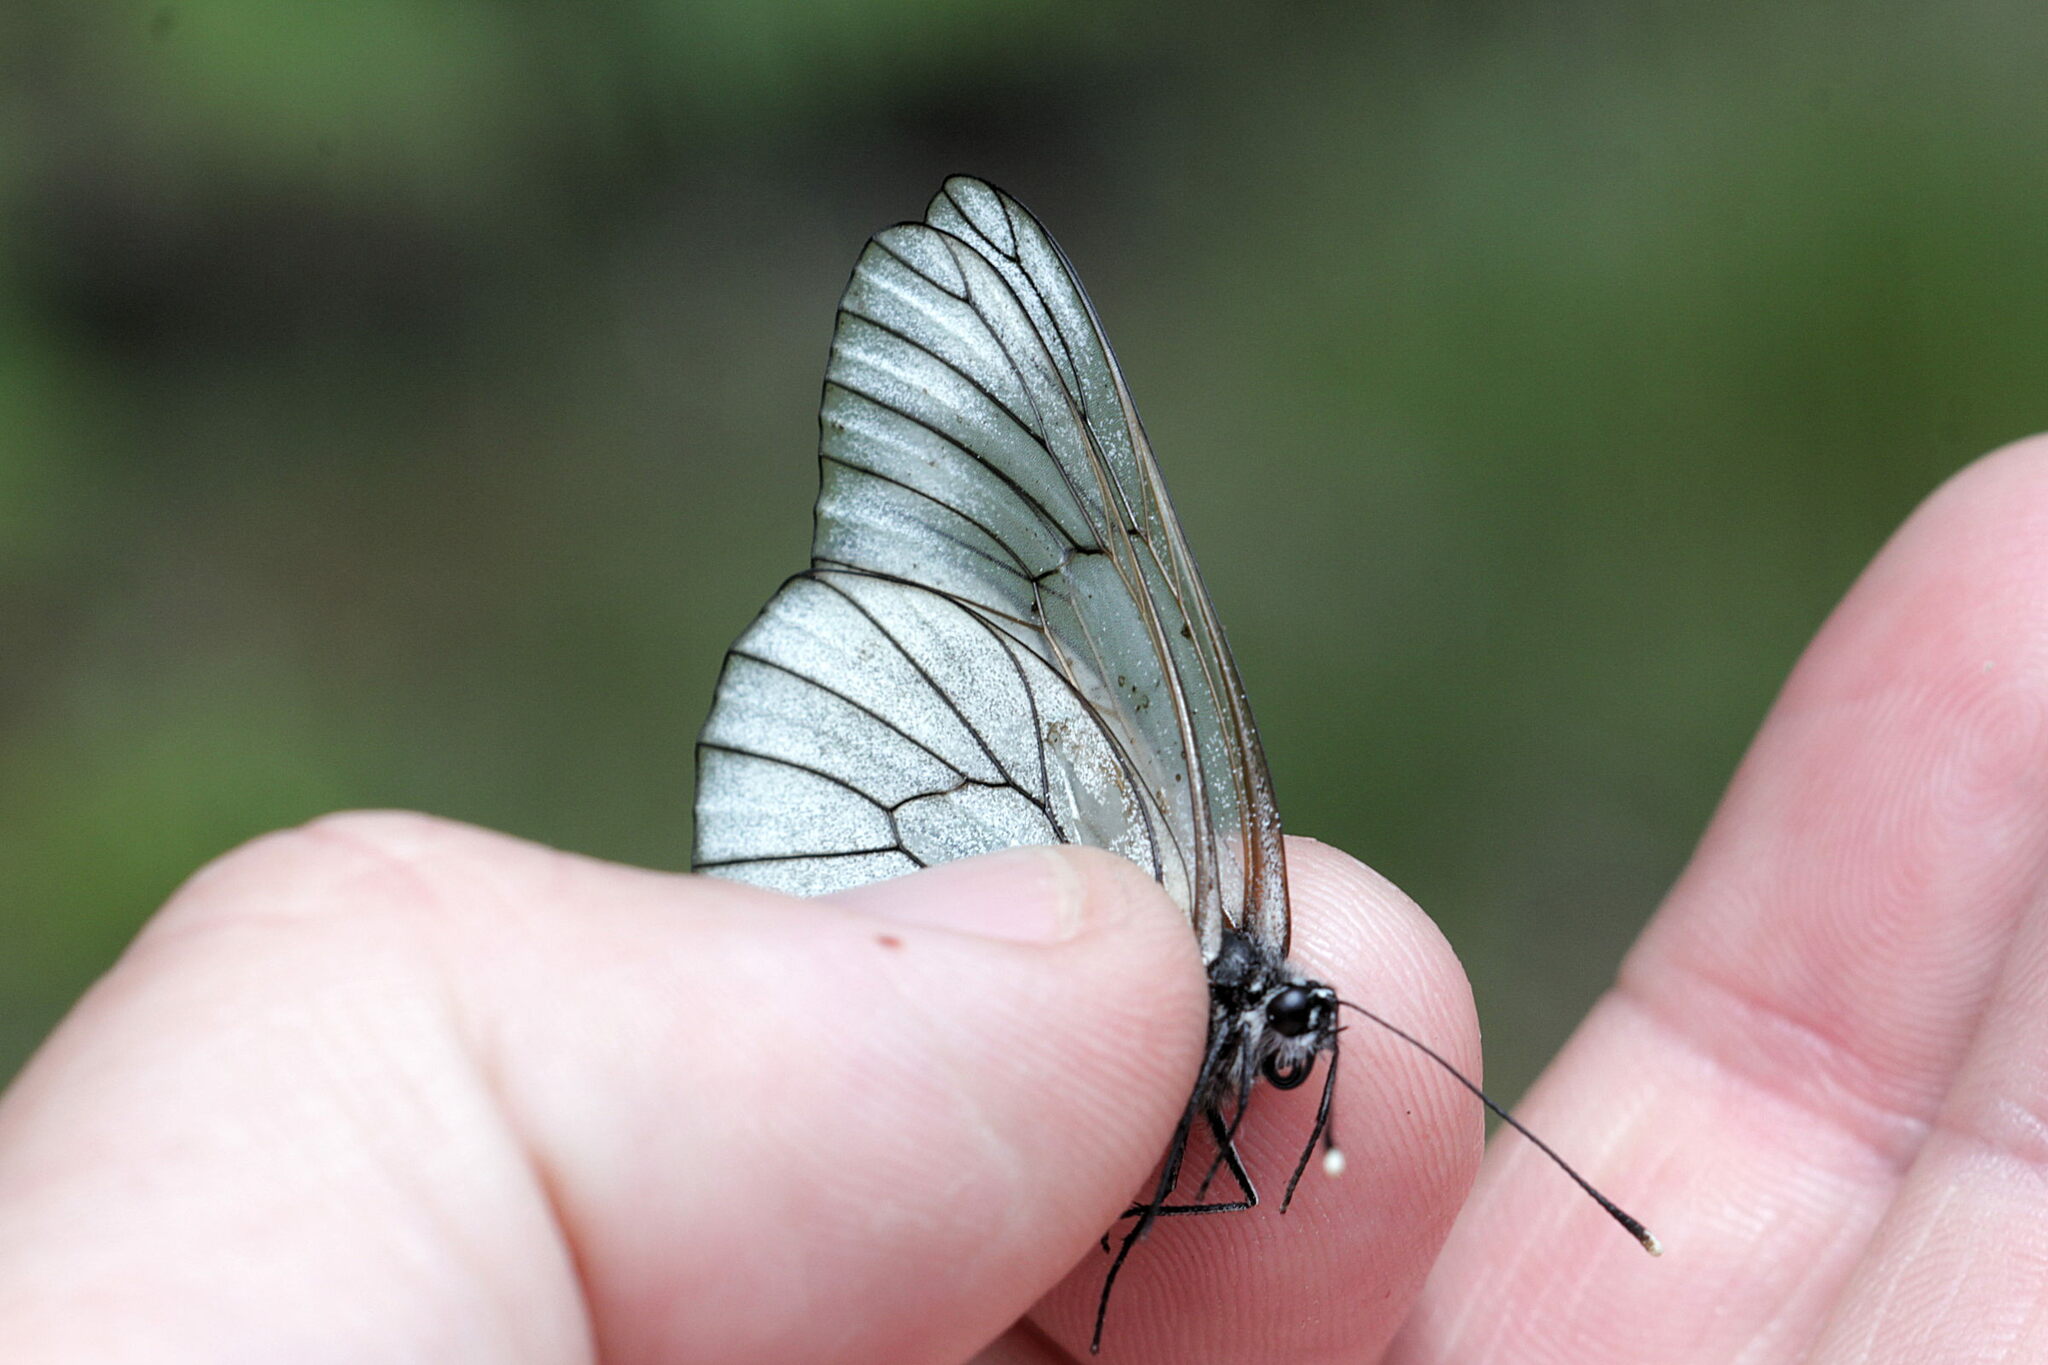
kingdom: Animalia
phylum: Arthropoda
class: Insecta
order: Lepidoptera
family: Pieridae
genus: Aporia
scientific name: Aporia crataegi
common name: Black-veined white
